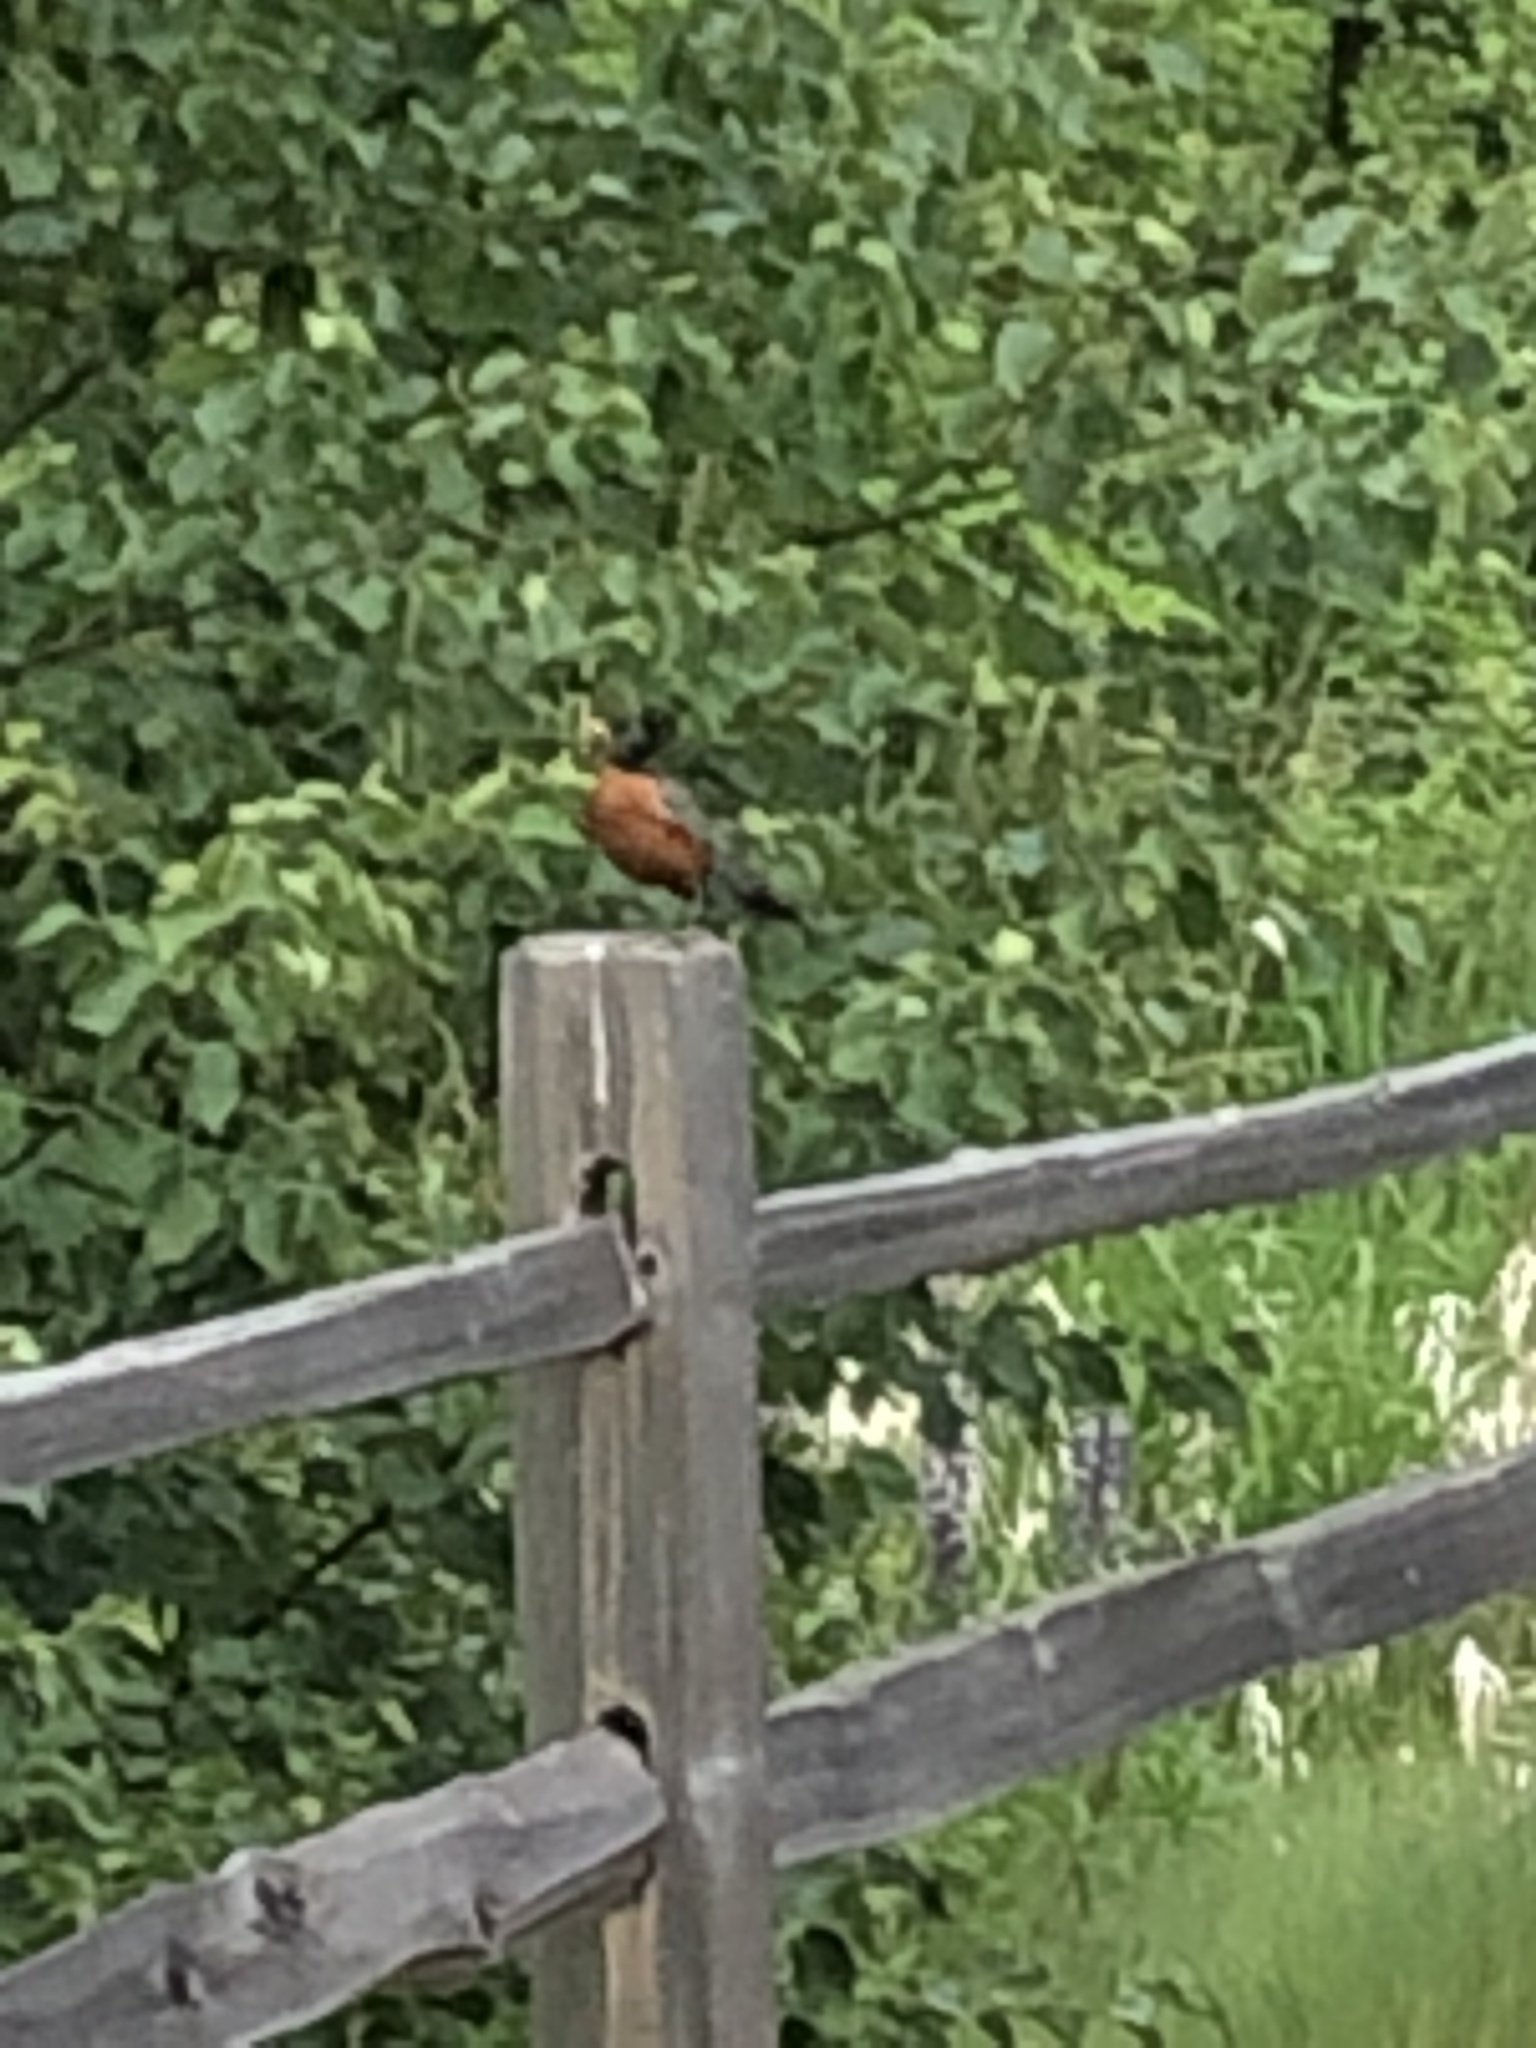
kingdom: Animalia
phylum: Chordata
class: Aves
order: Passeriformes
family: Turdidae
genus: Turdus
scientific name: Turdus migratorius
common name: American robin
